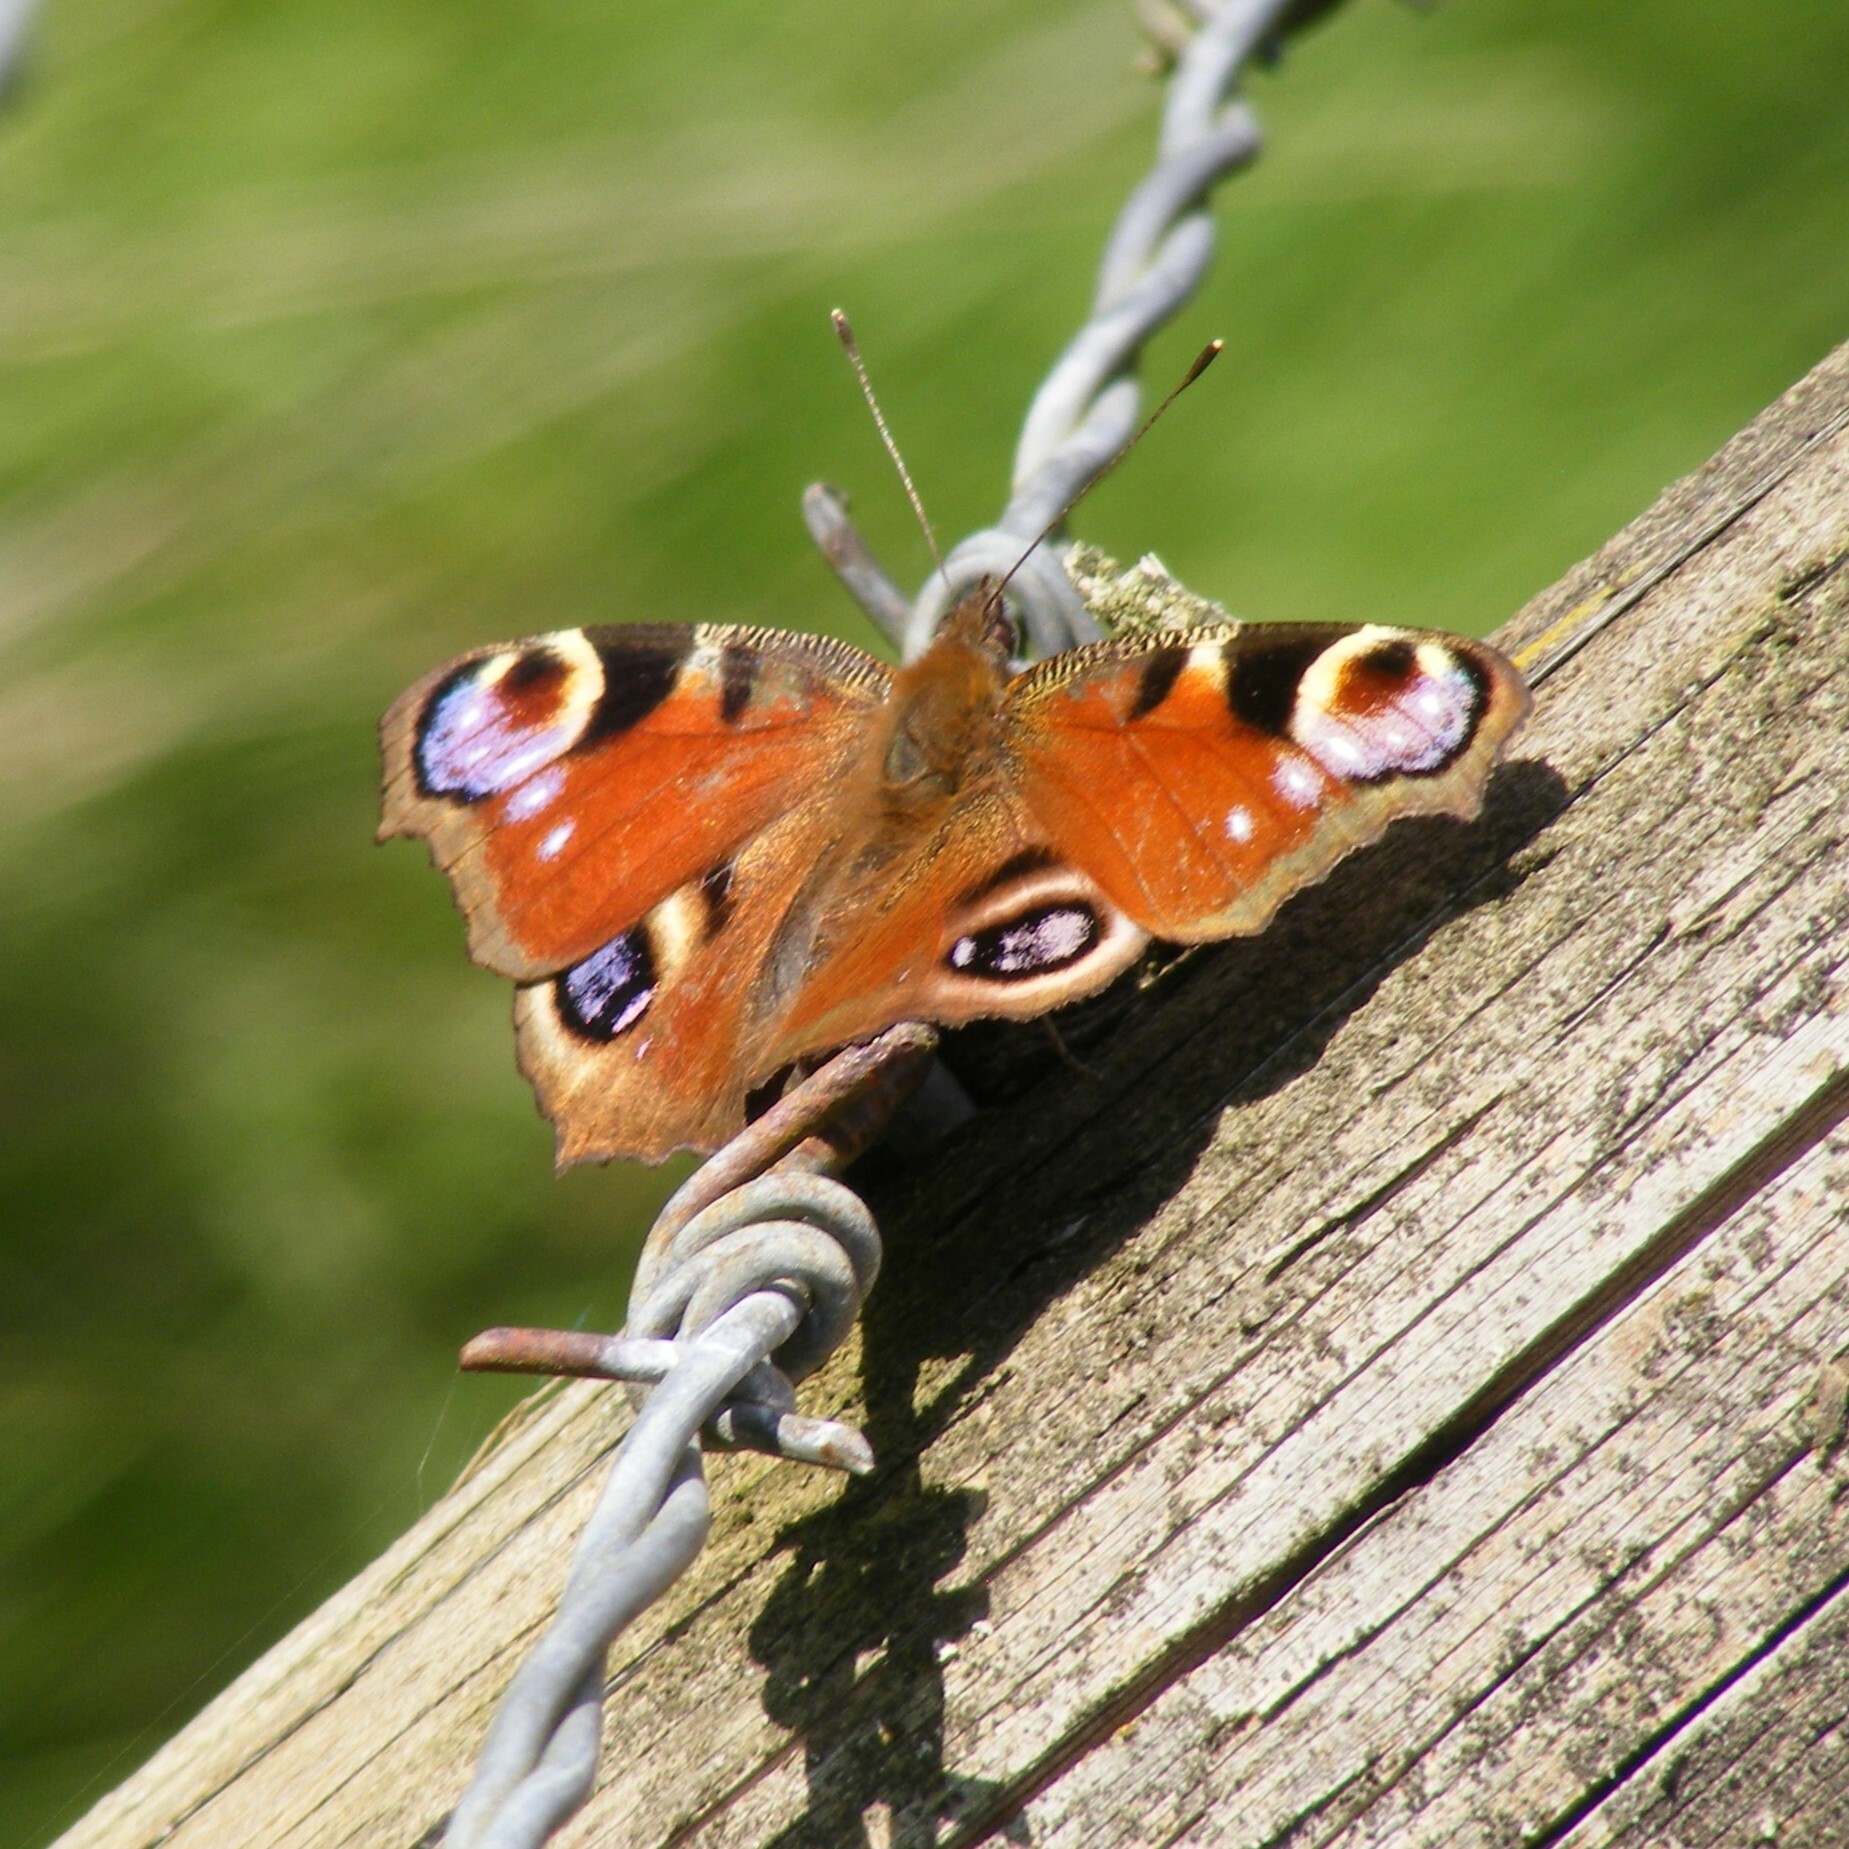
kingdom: Animalia
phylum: Arthropoda
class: Insecta
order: Lepidoptera
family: Nymphalidae
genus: Aglais
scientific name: Aglais io
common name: Peacock
